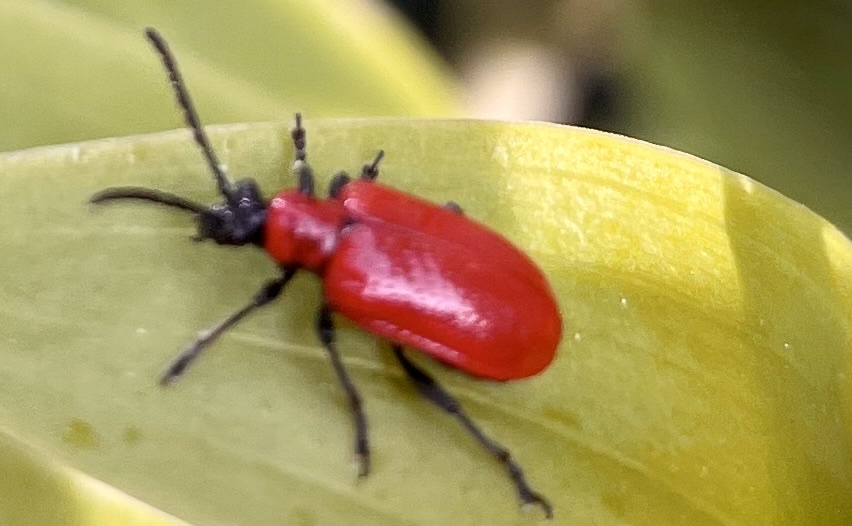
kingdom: Animalia
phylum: Arthropoda
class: Insecta
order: Coleoptera
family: Chrysomelidae
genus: Lilioceris
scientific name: Lilioceris lilii
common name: Lily beetle
